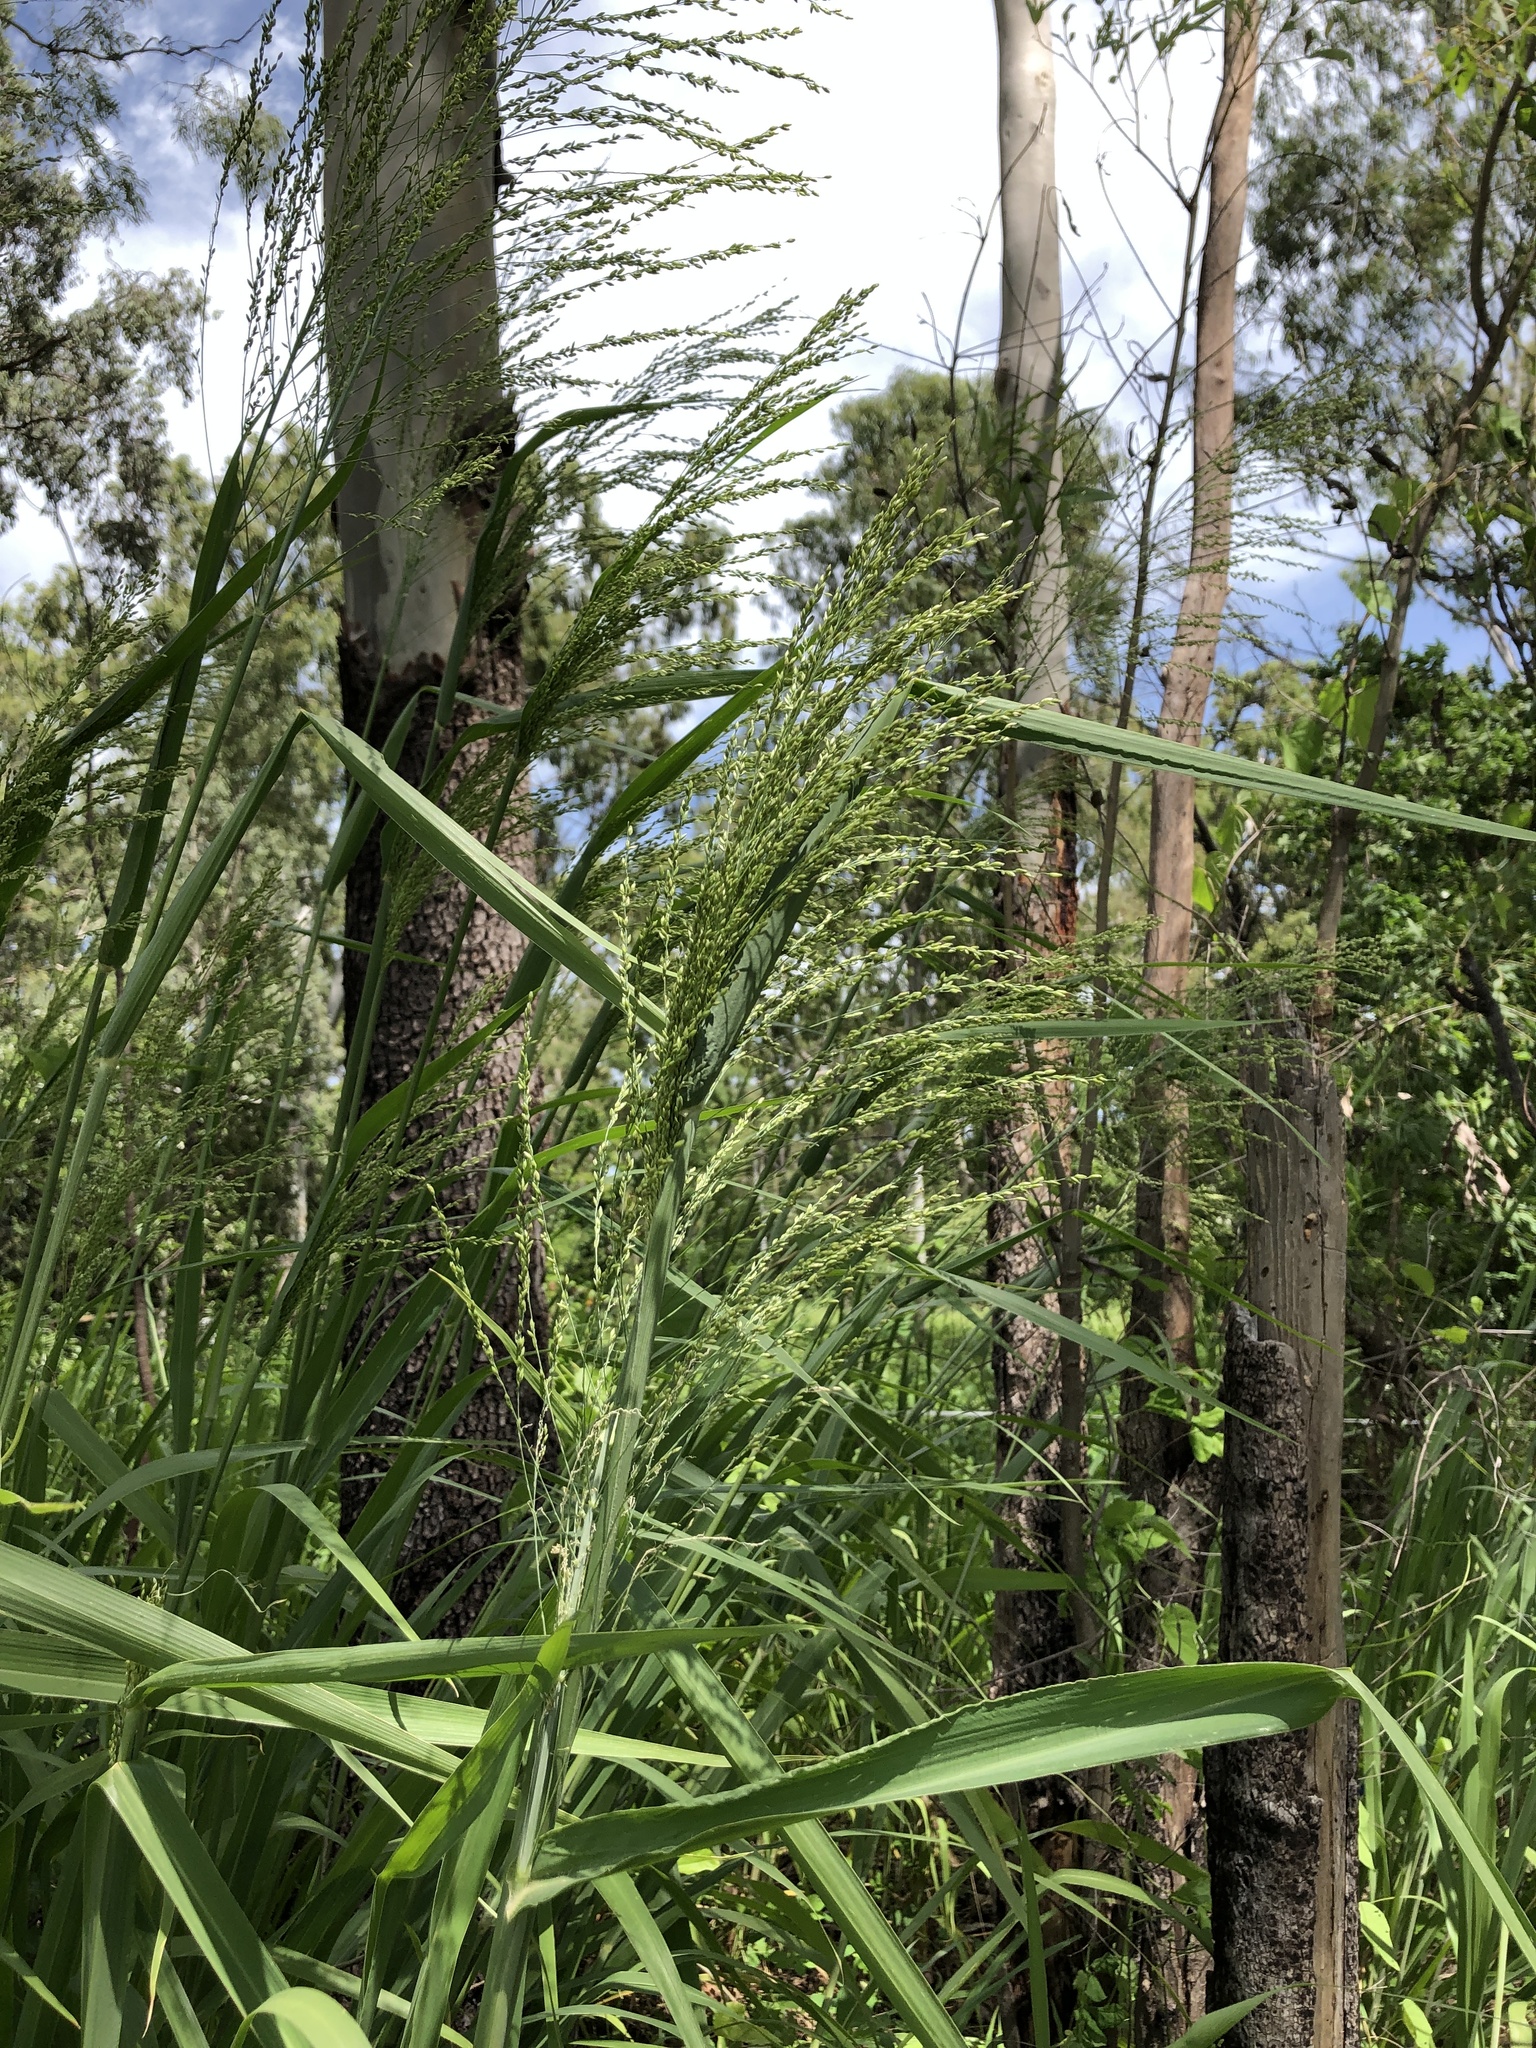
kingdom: Plantae
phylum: Tracheophyta
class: Liliopsida
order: Poales
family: Poaceae
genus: Megathyrsus
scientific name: Megathyrsus maximus
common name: Guineagrass
